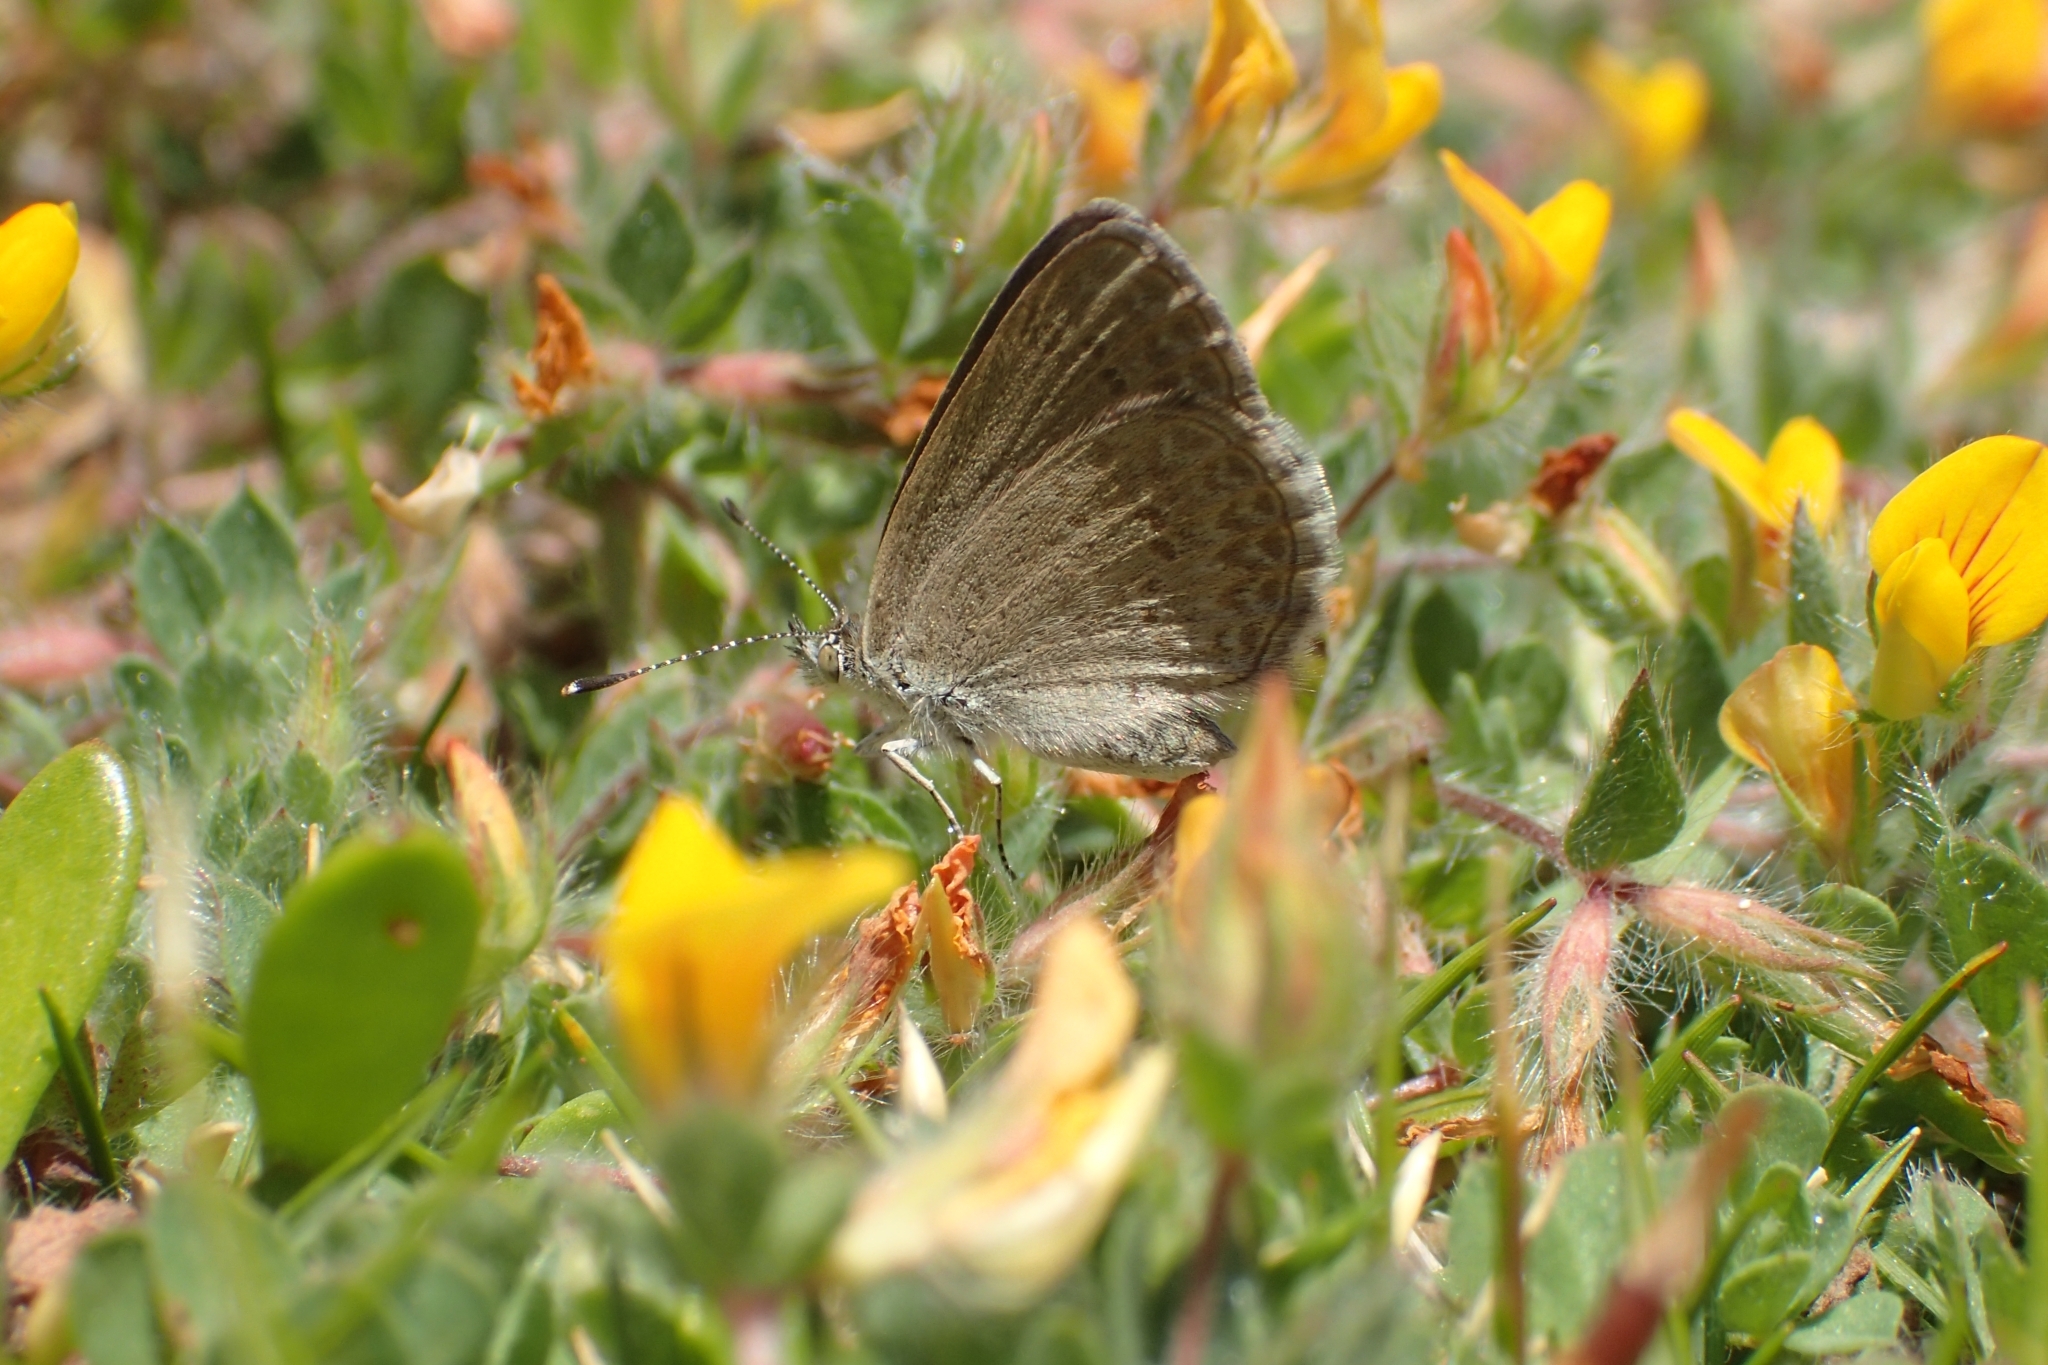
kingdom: Animalia
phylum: Arthropoda
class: Insecta
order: Lepidoptera
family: Lycaenidae
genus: Zizina
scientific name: Zizina labradus
